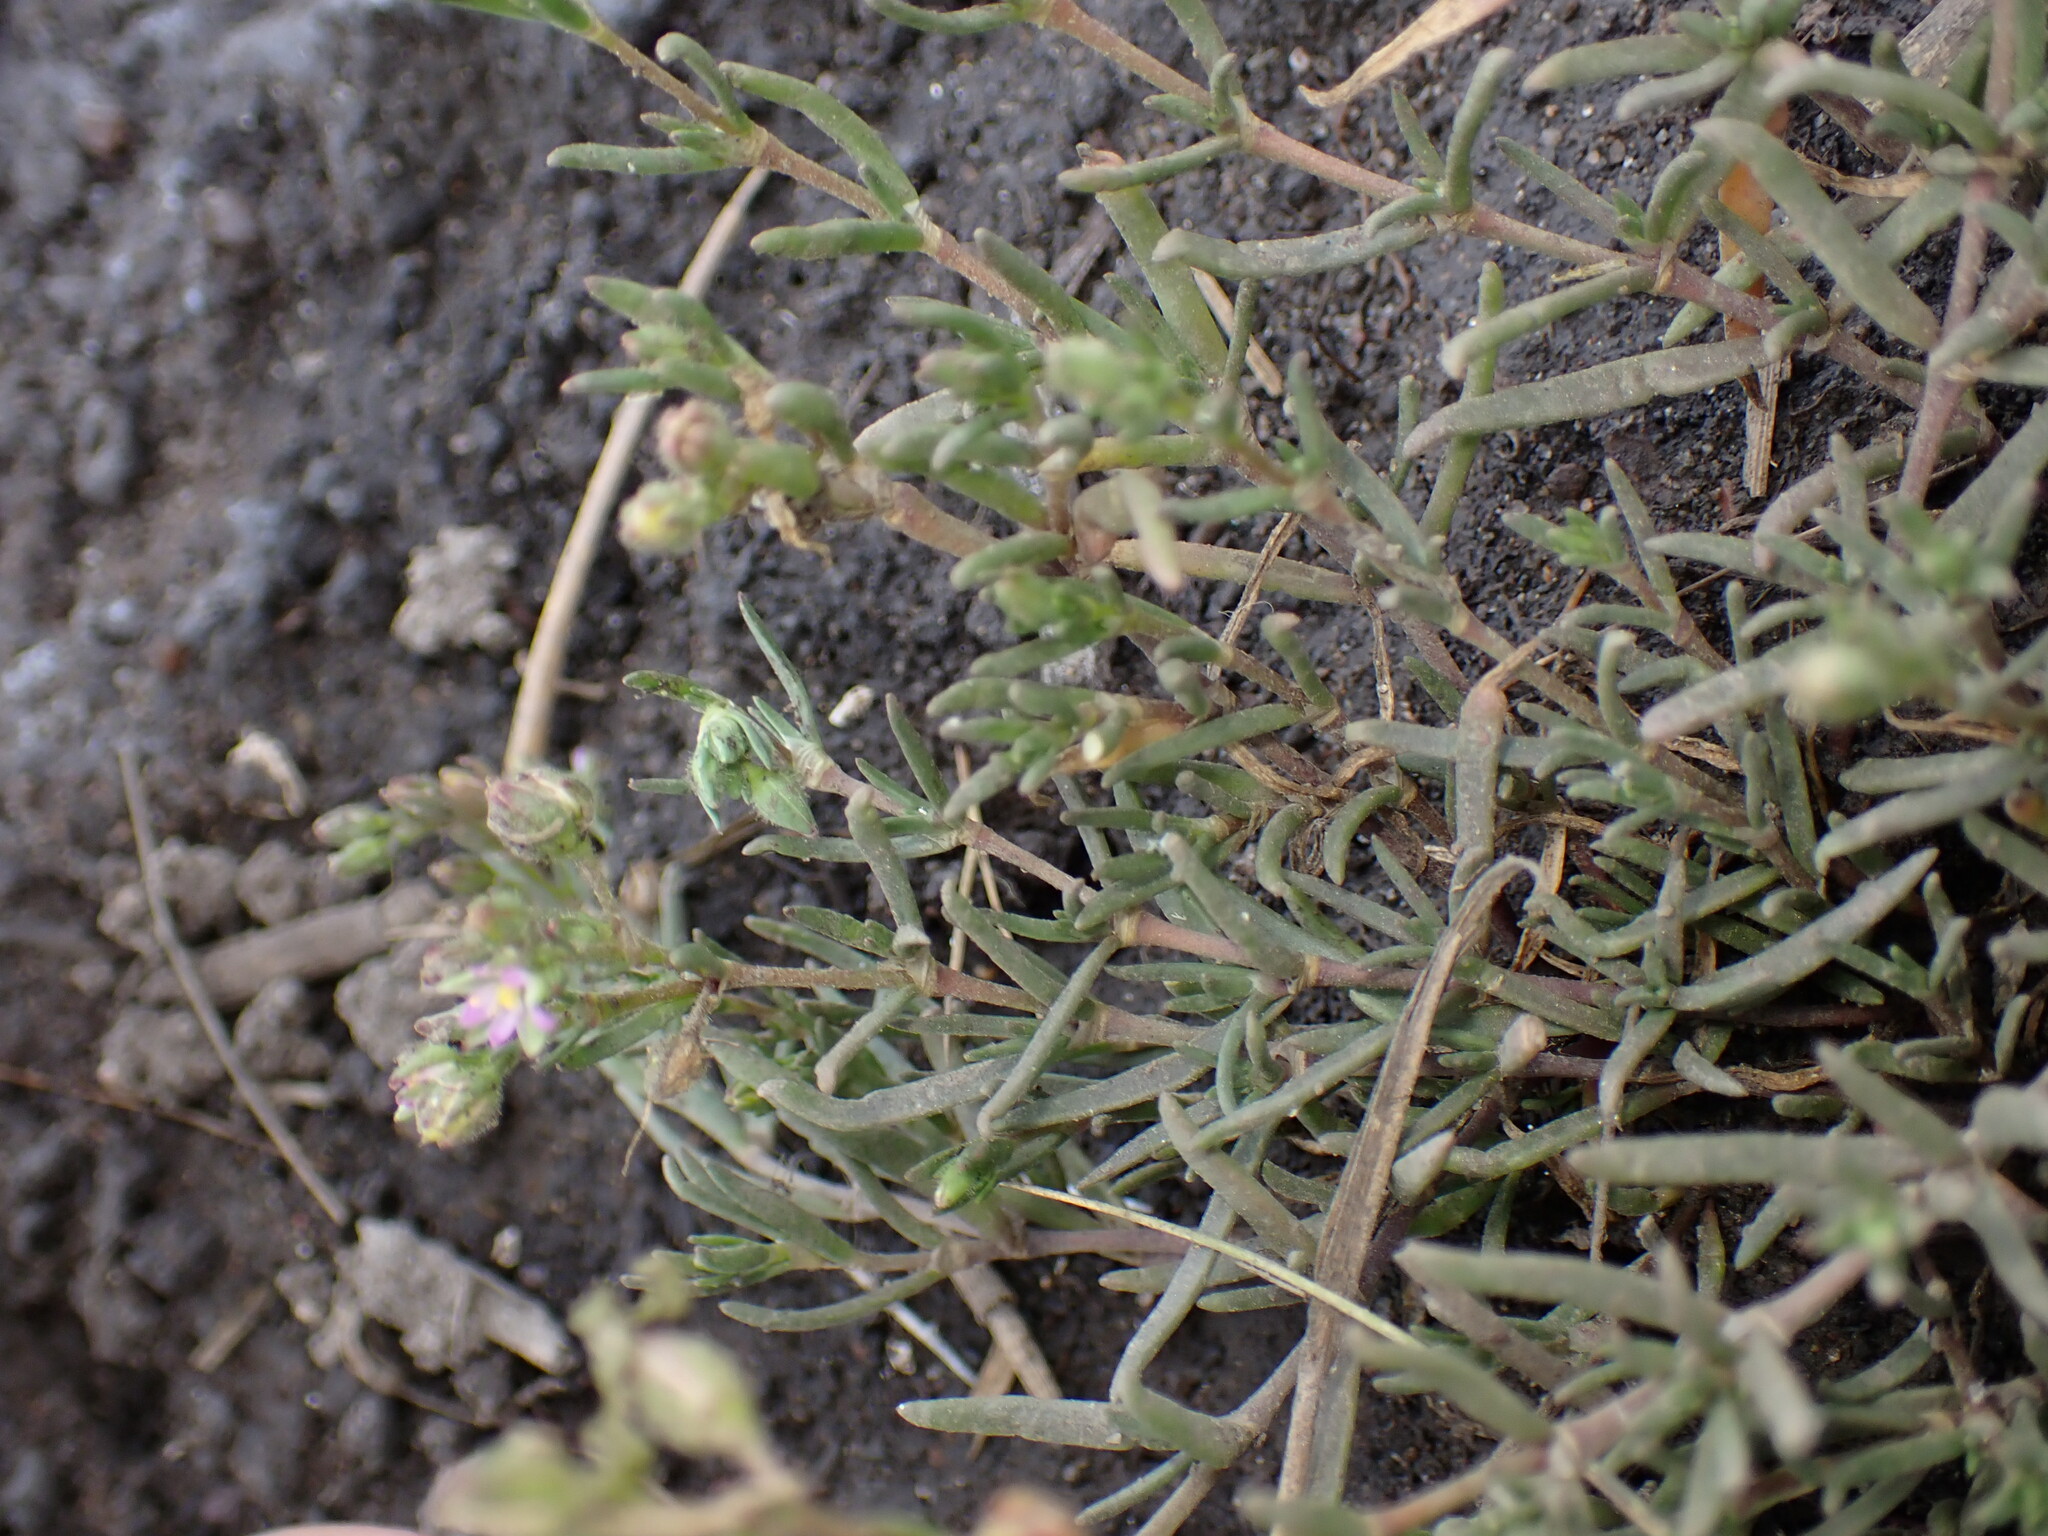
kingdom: Plantae
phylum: Tracheophyta
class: Magnoliopsida
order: Caryophyllales
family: Caryophyllaceae
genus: Spergularia
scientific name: Spergularia marina
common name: Lesser sea-spurrey
